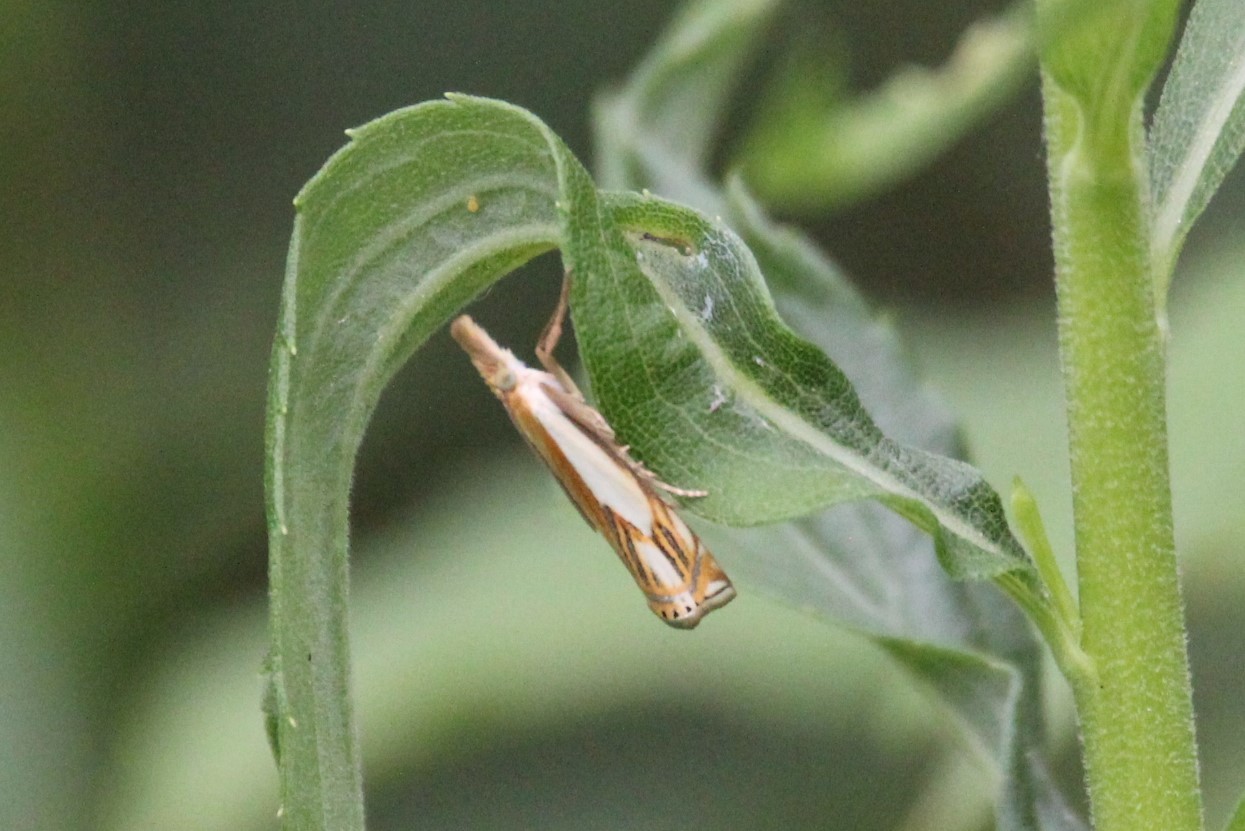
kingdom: Animalia
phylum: Arthropoda
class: Insecta
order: Lepidoptera
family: Crambidae
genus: Crambus
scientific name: Crambus agitatellus
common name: Double-banded grass-veneer
